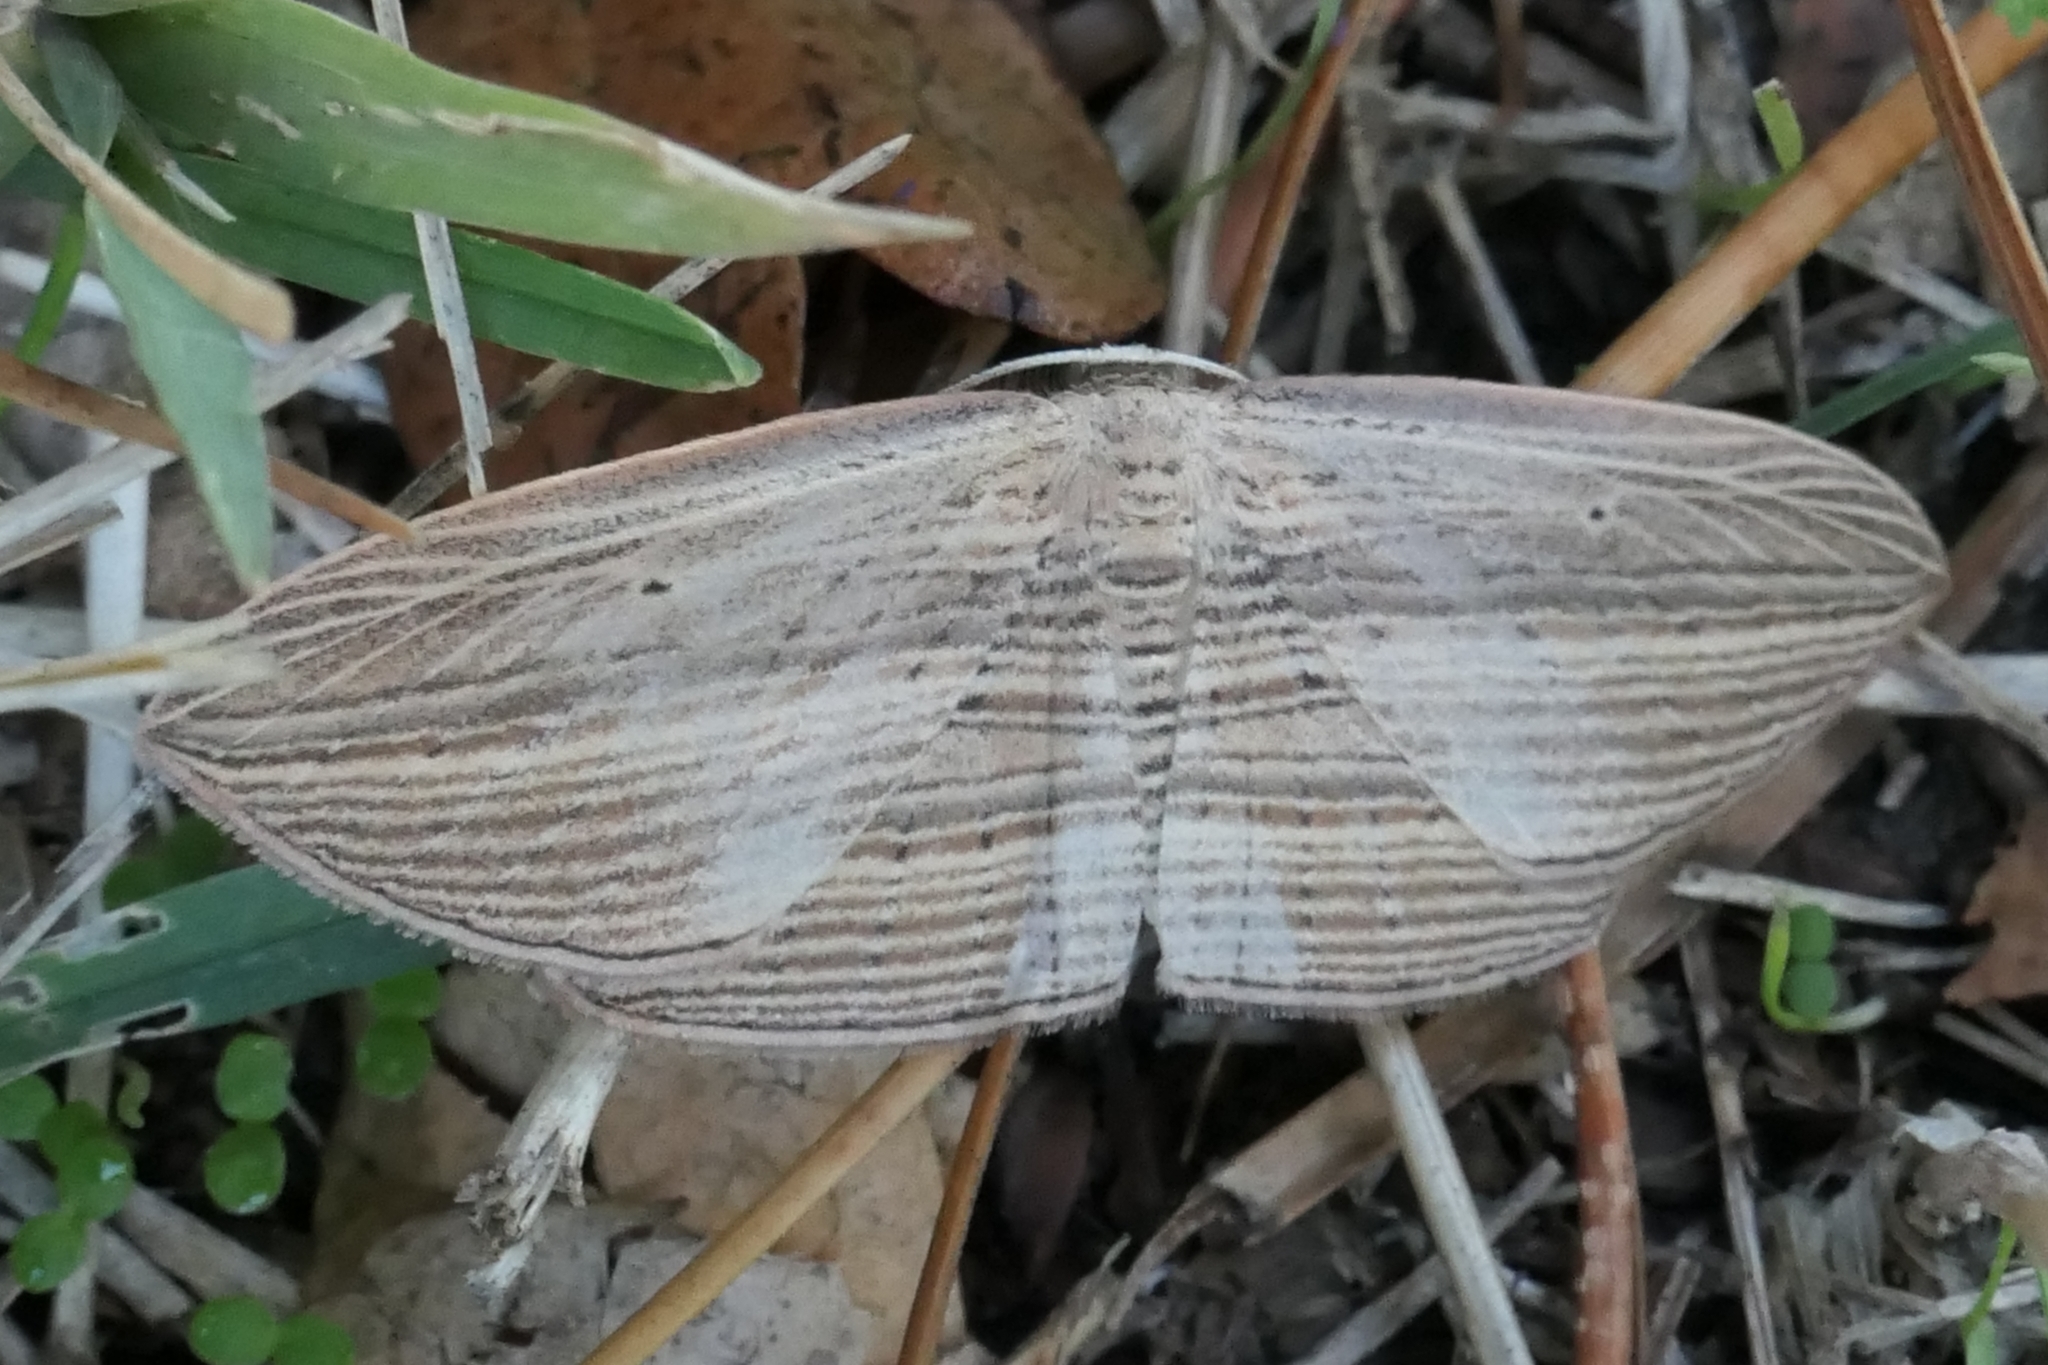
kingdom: Animalia
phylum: Arthropoda
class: Insecta
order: Lepidoptera
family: Geometridae
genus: Epiphryne
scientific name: Epiphryne verriculata
